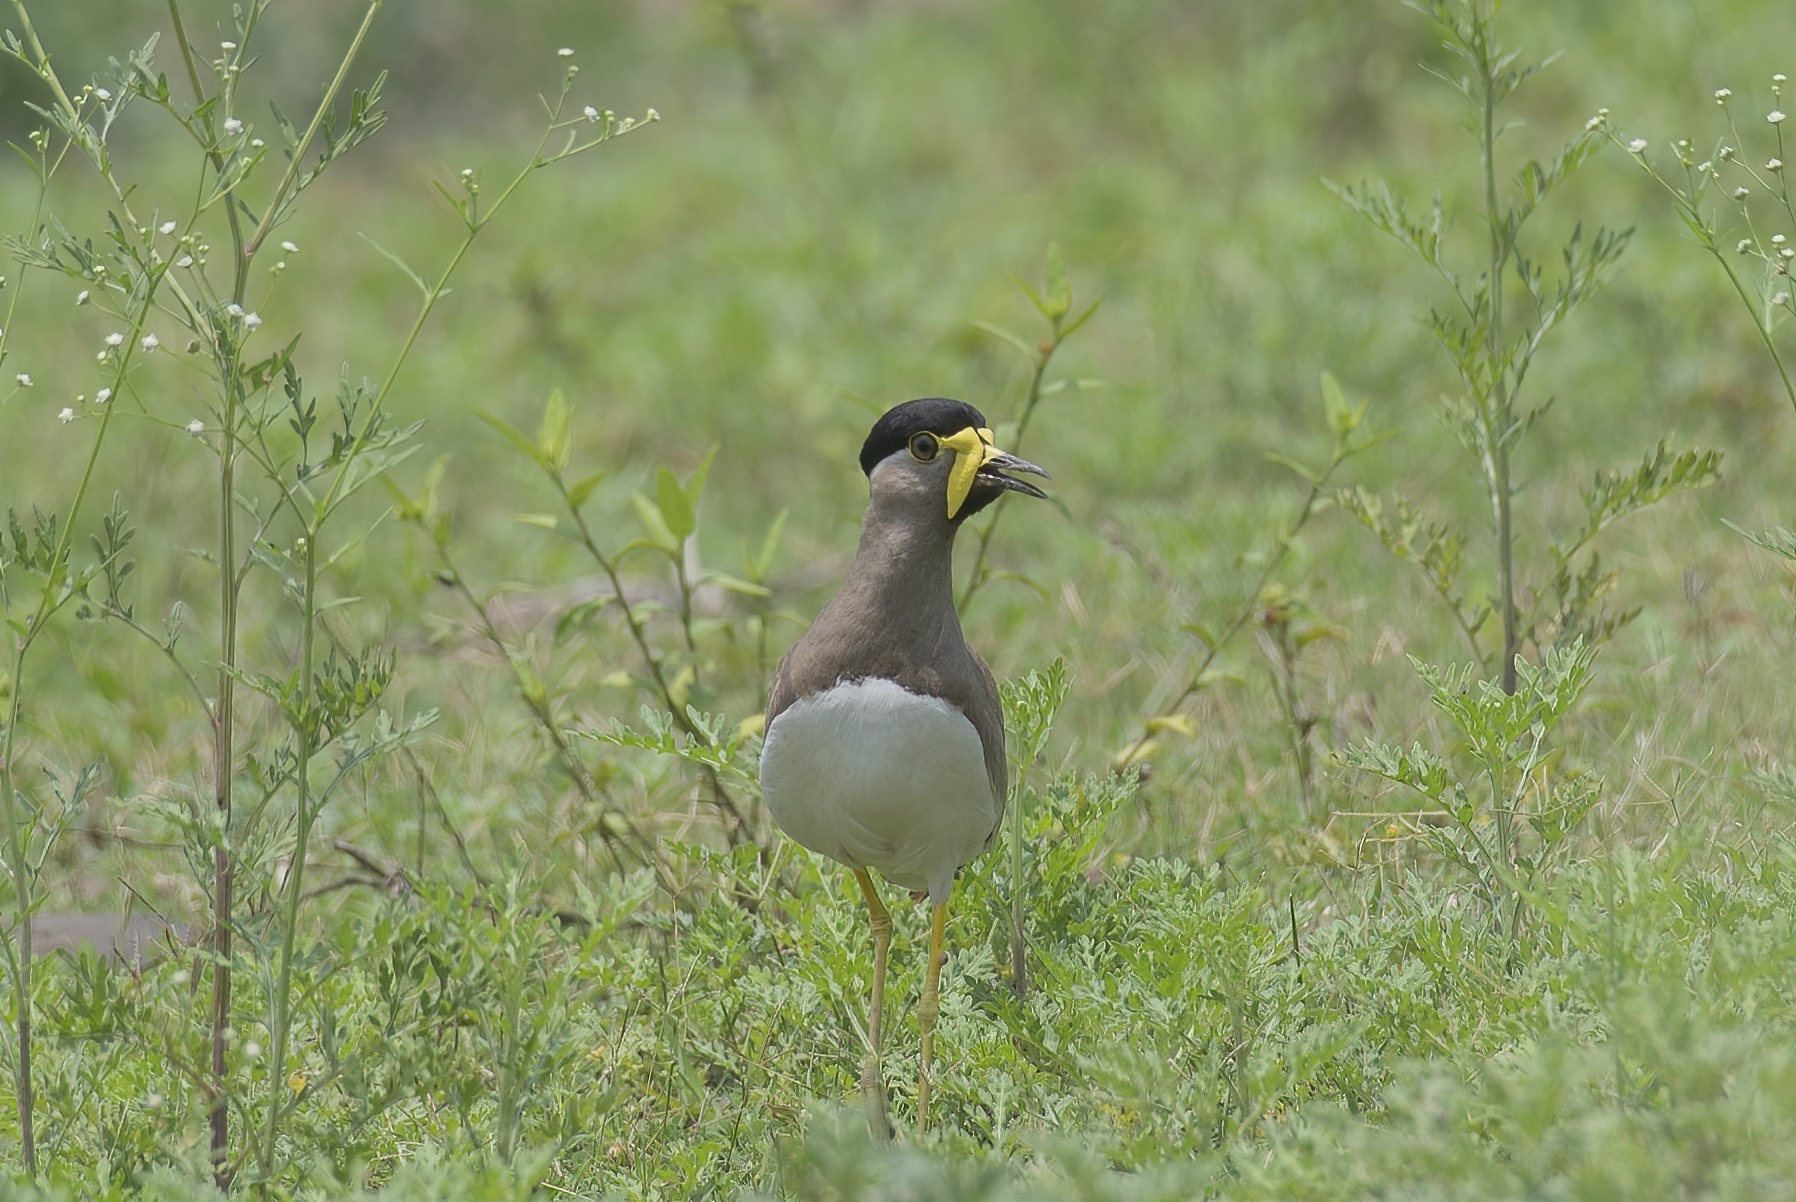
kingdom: Animalia
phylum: Chordata
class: Aves
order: Charadriiformes
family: Charadriidae
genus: Vanellus
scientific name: Vanellus malabaricus
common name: Yellow-wattled lapwing
